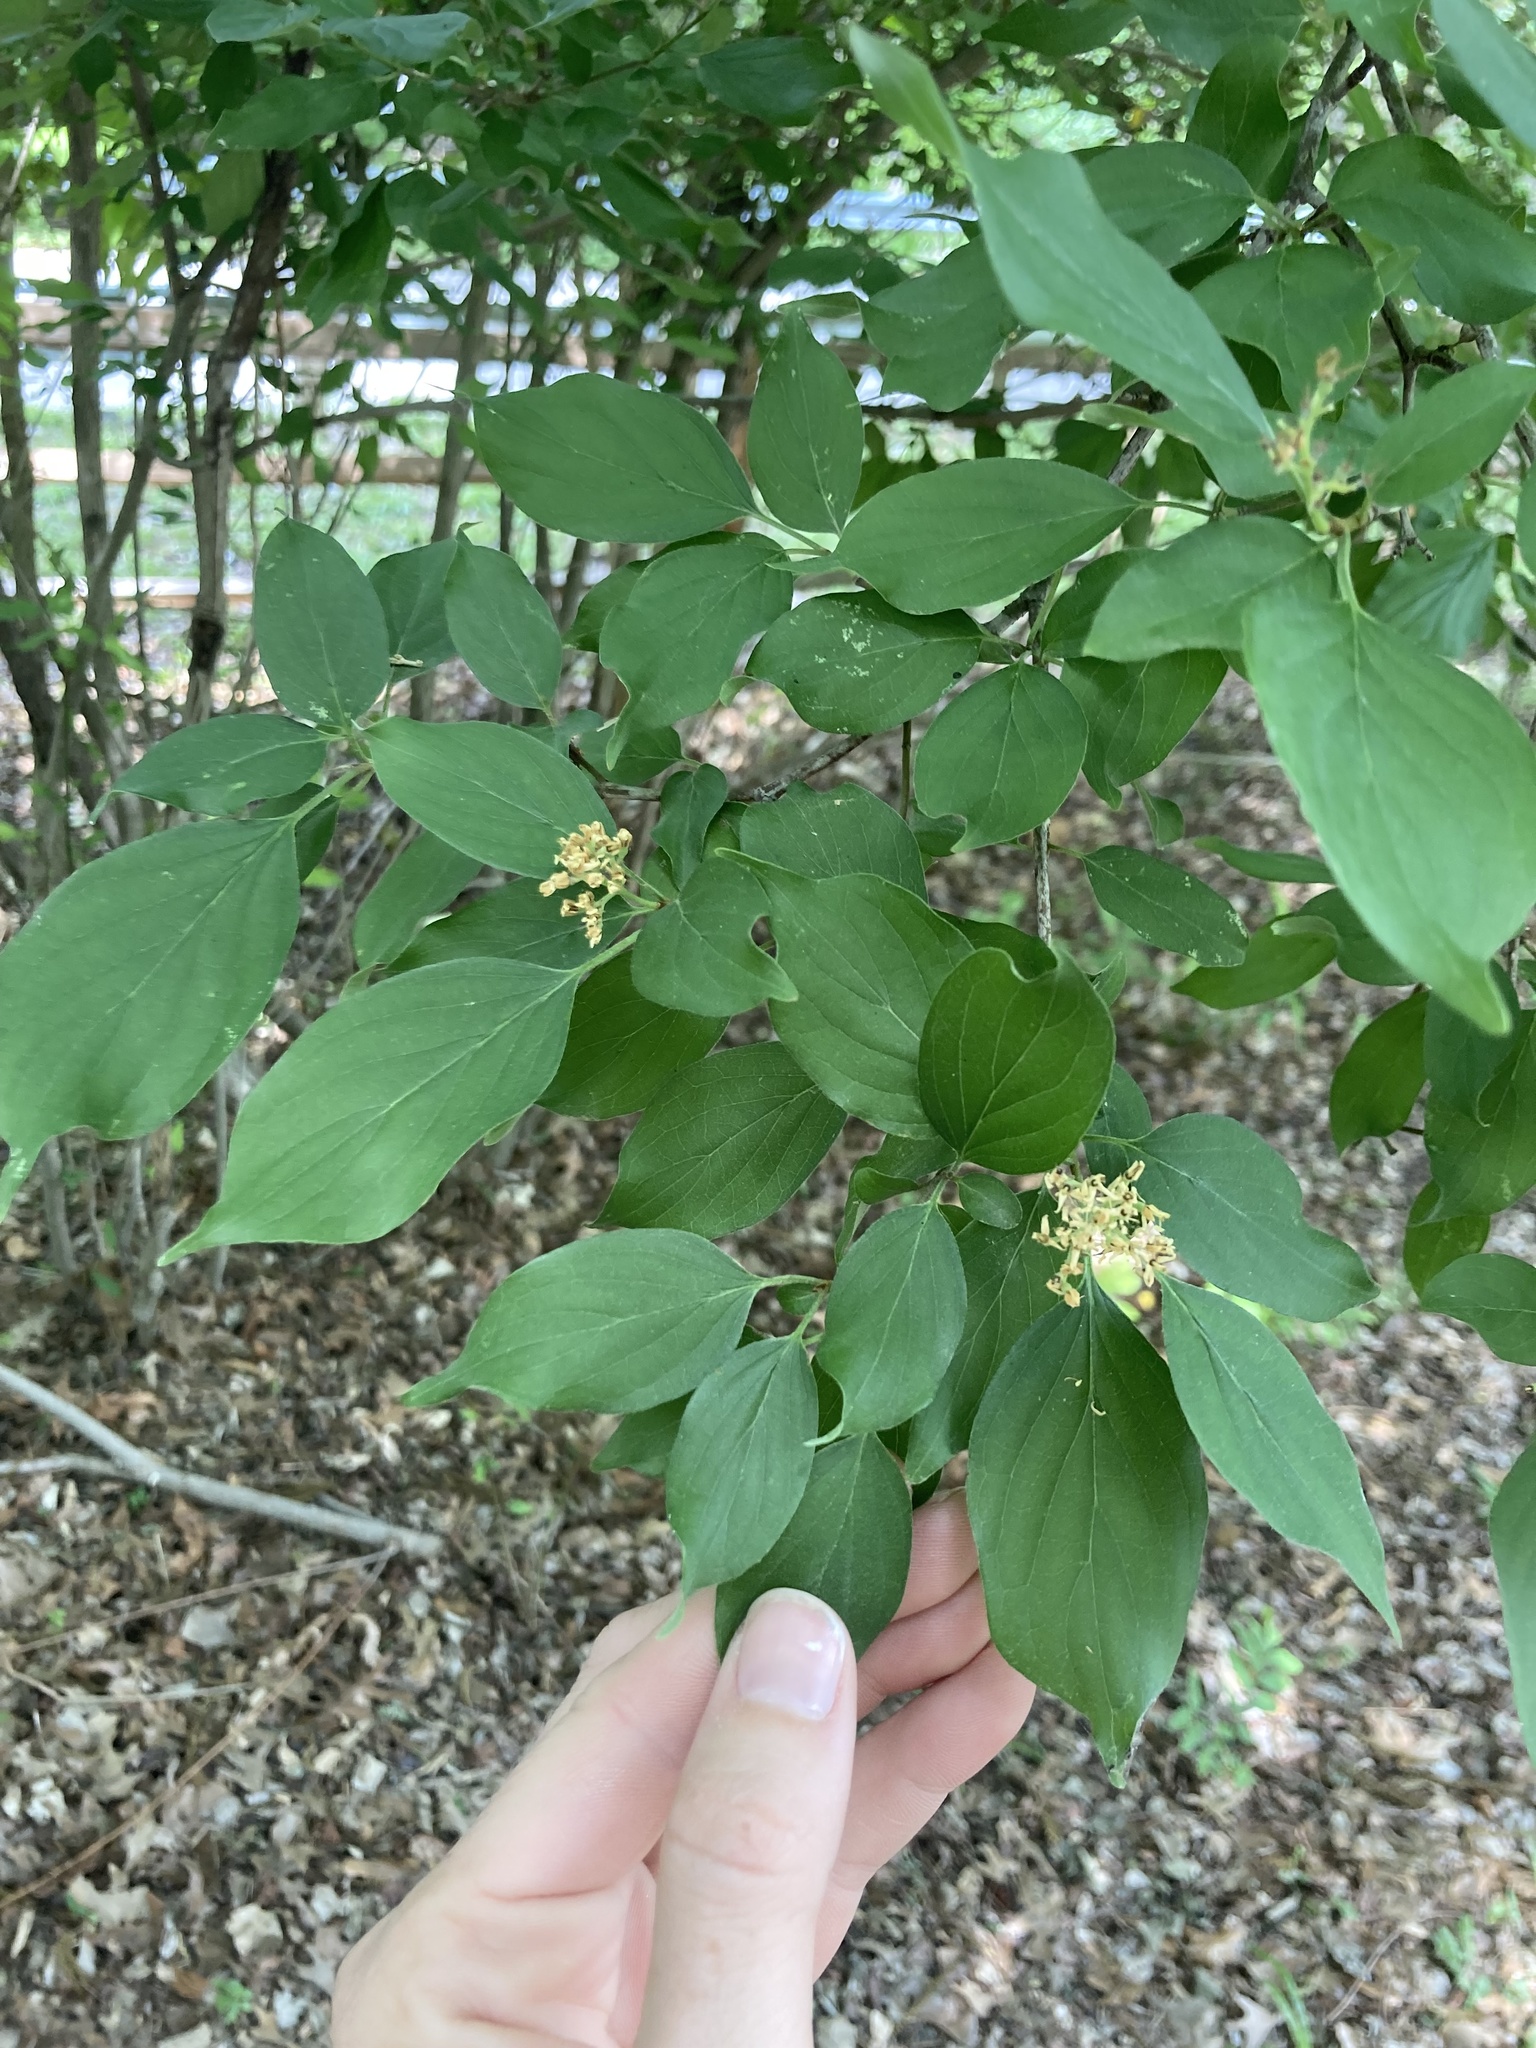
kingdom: Plantae
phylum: Tracheophyta
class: Magnoliopsida
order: Cornales
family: Cornaceae
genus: Cornus
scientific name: Cornus drummondii
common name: Rough-leaf dogwood
